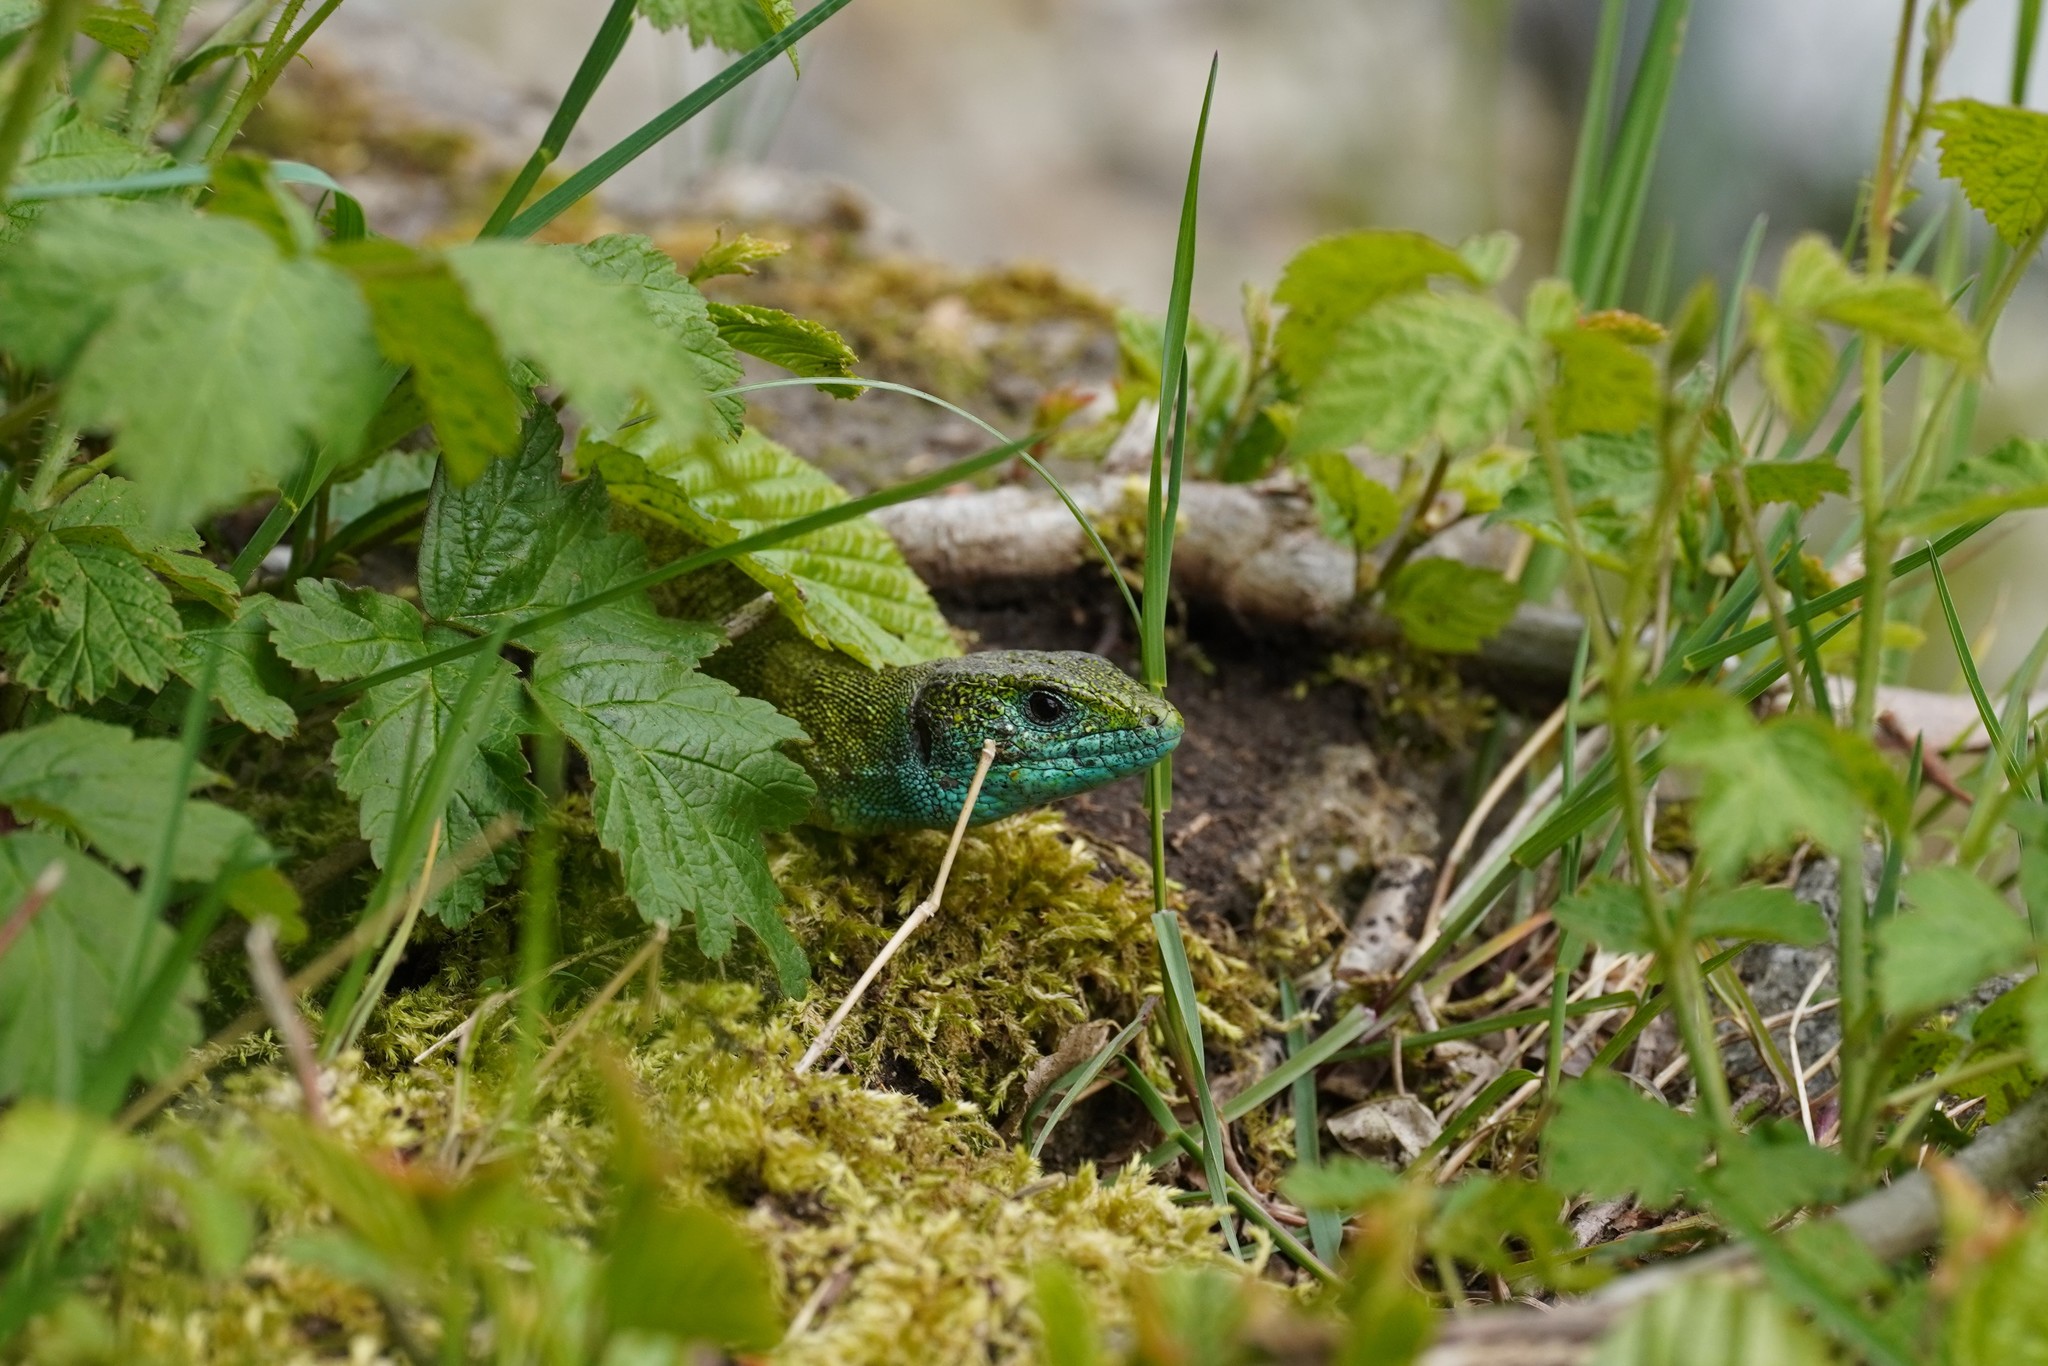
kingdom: Animalia
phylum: Chordata
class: Squamata
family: Lacertidae
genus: Lacerta
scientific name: Lacerta viridis
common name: European green lizard
